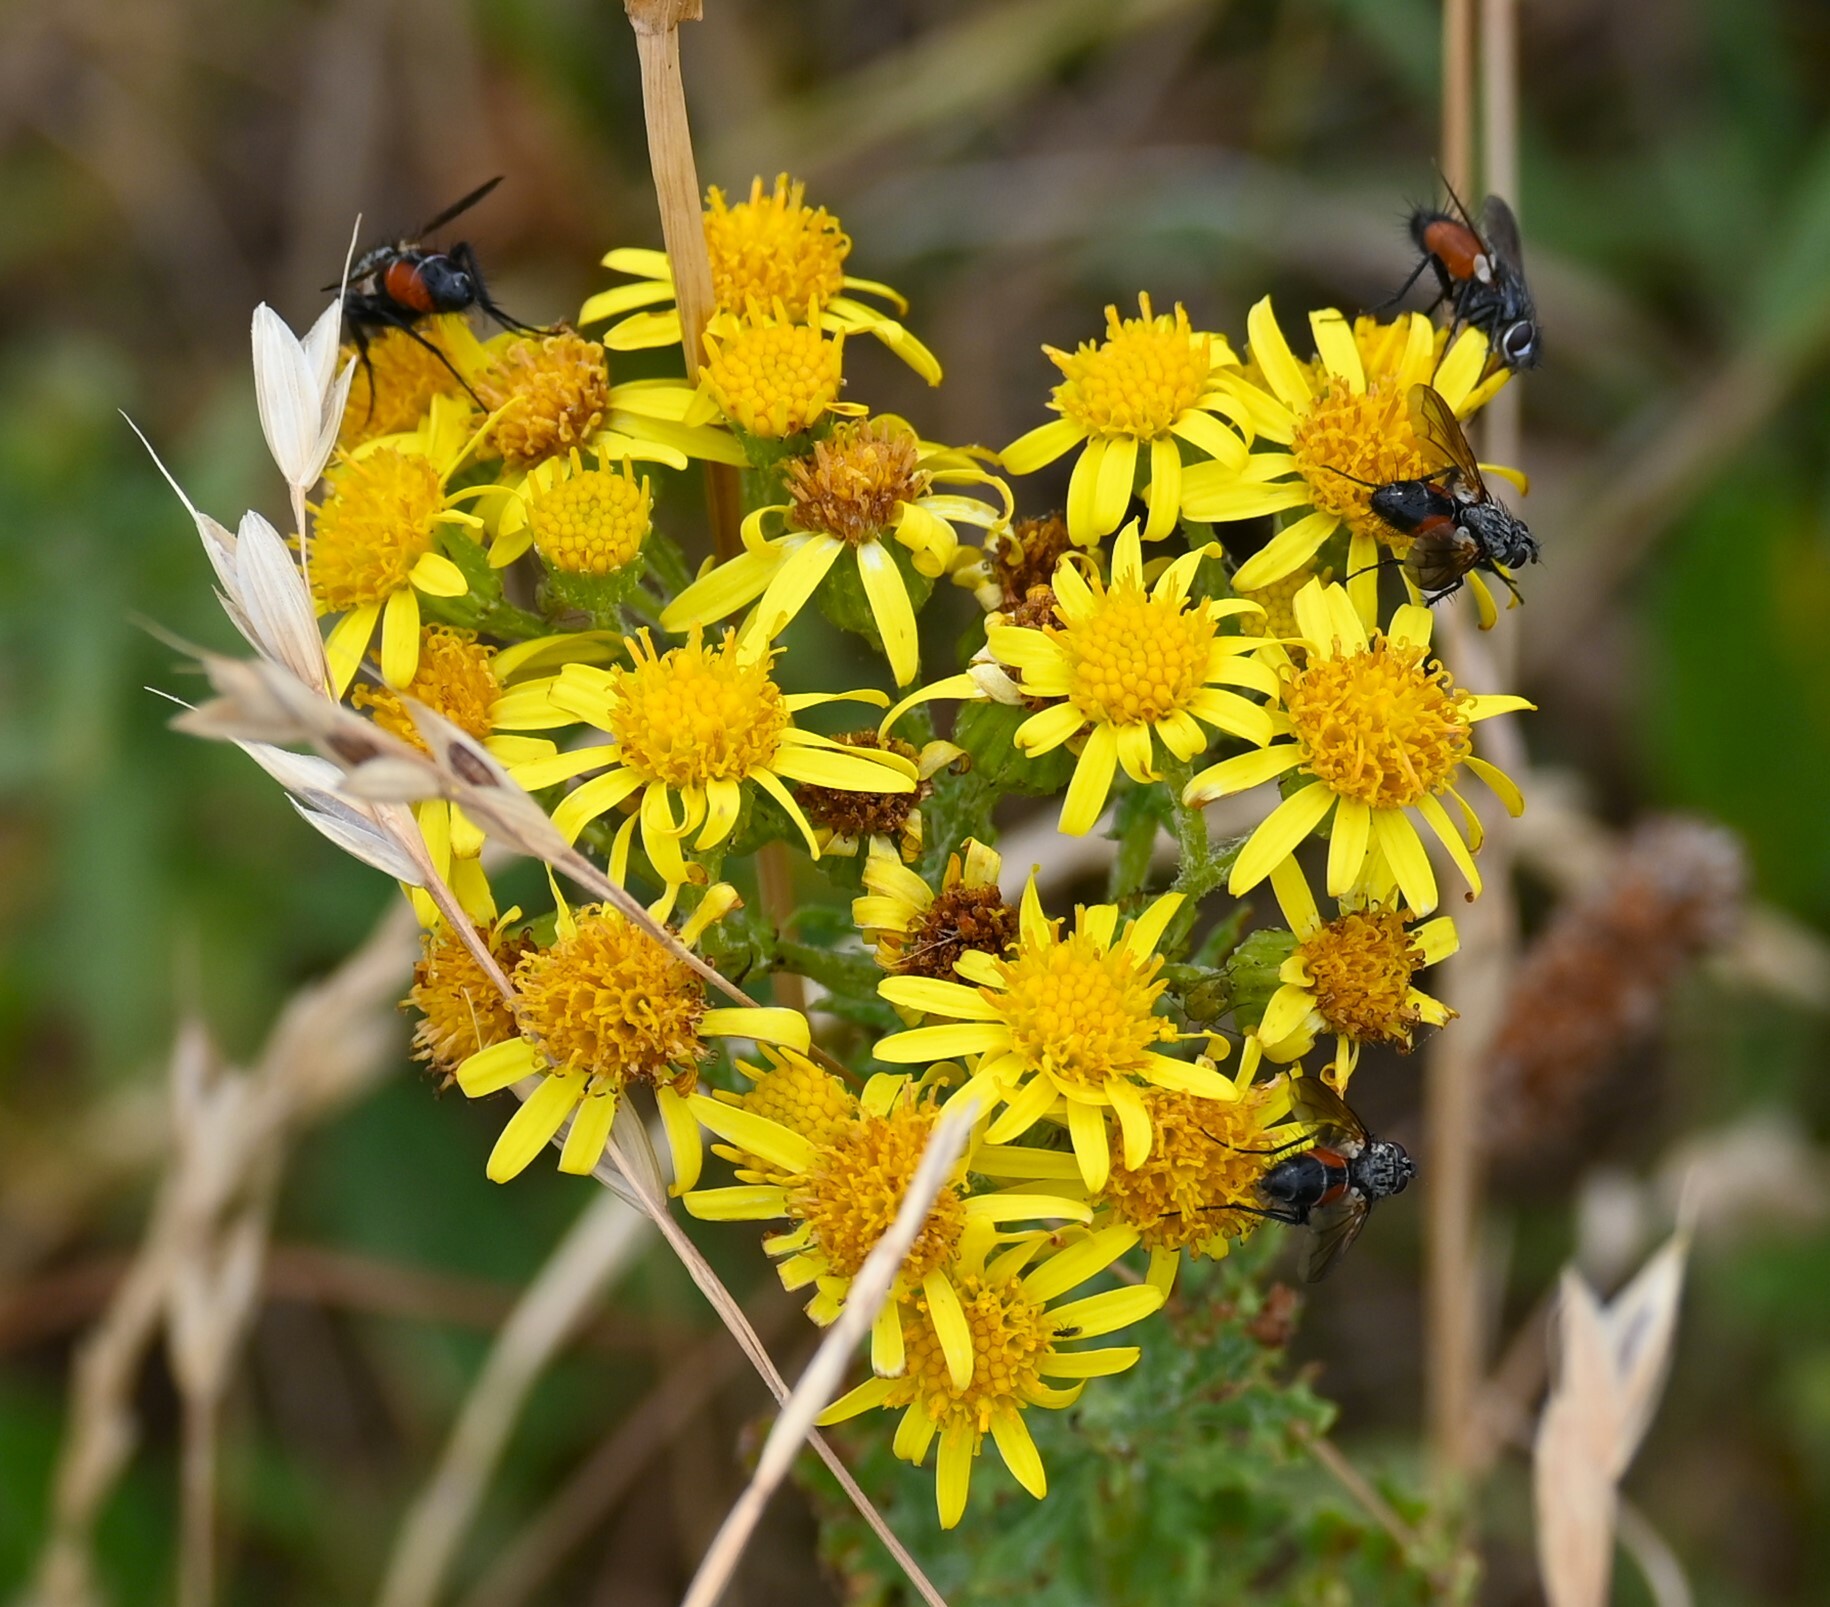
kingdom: Animalia
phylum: Arthropoda
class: Insecta
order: Diptera
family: Tachinidae
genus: Eriothrix
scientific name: Eriothrix rufomaculatus
